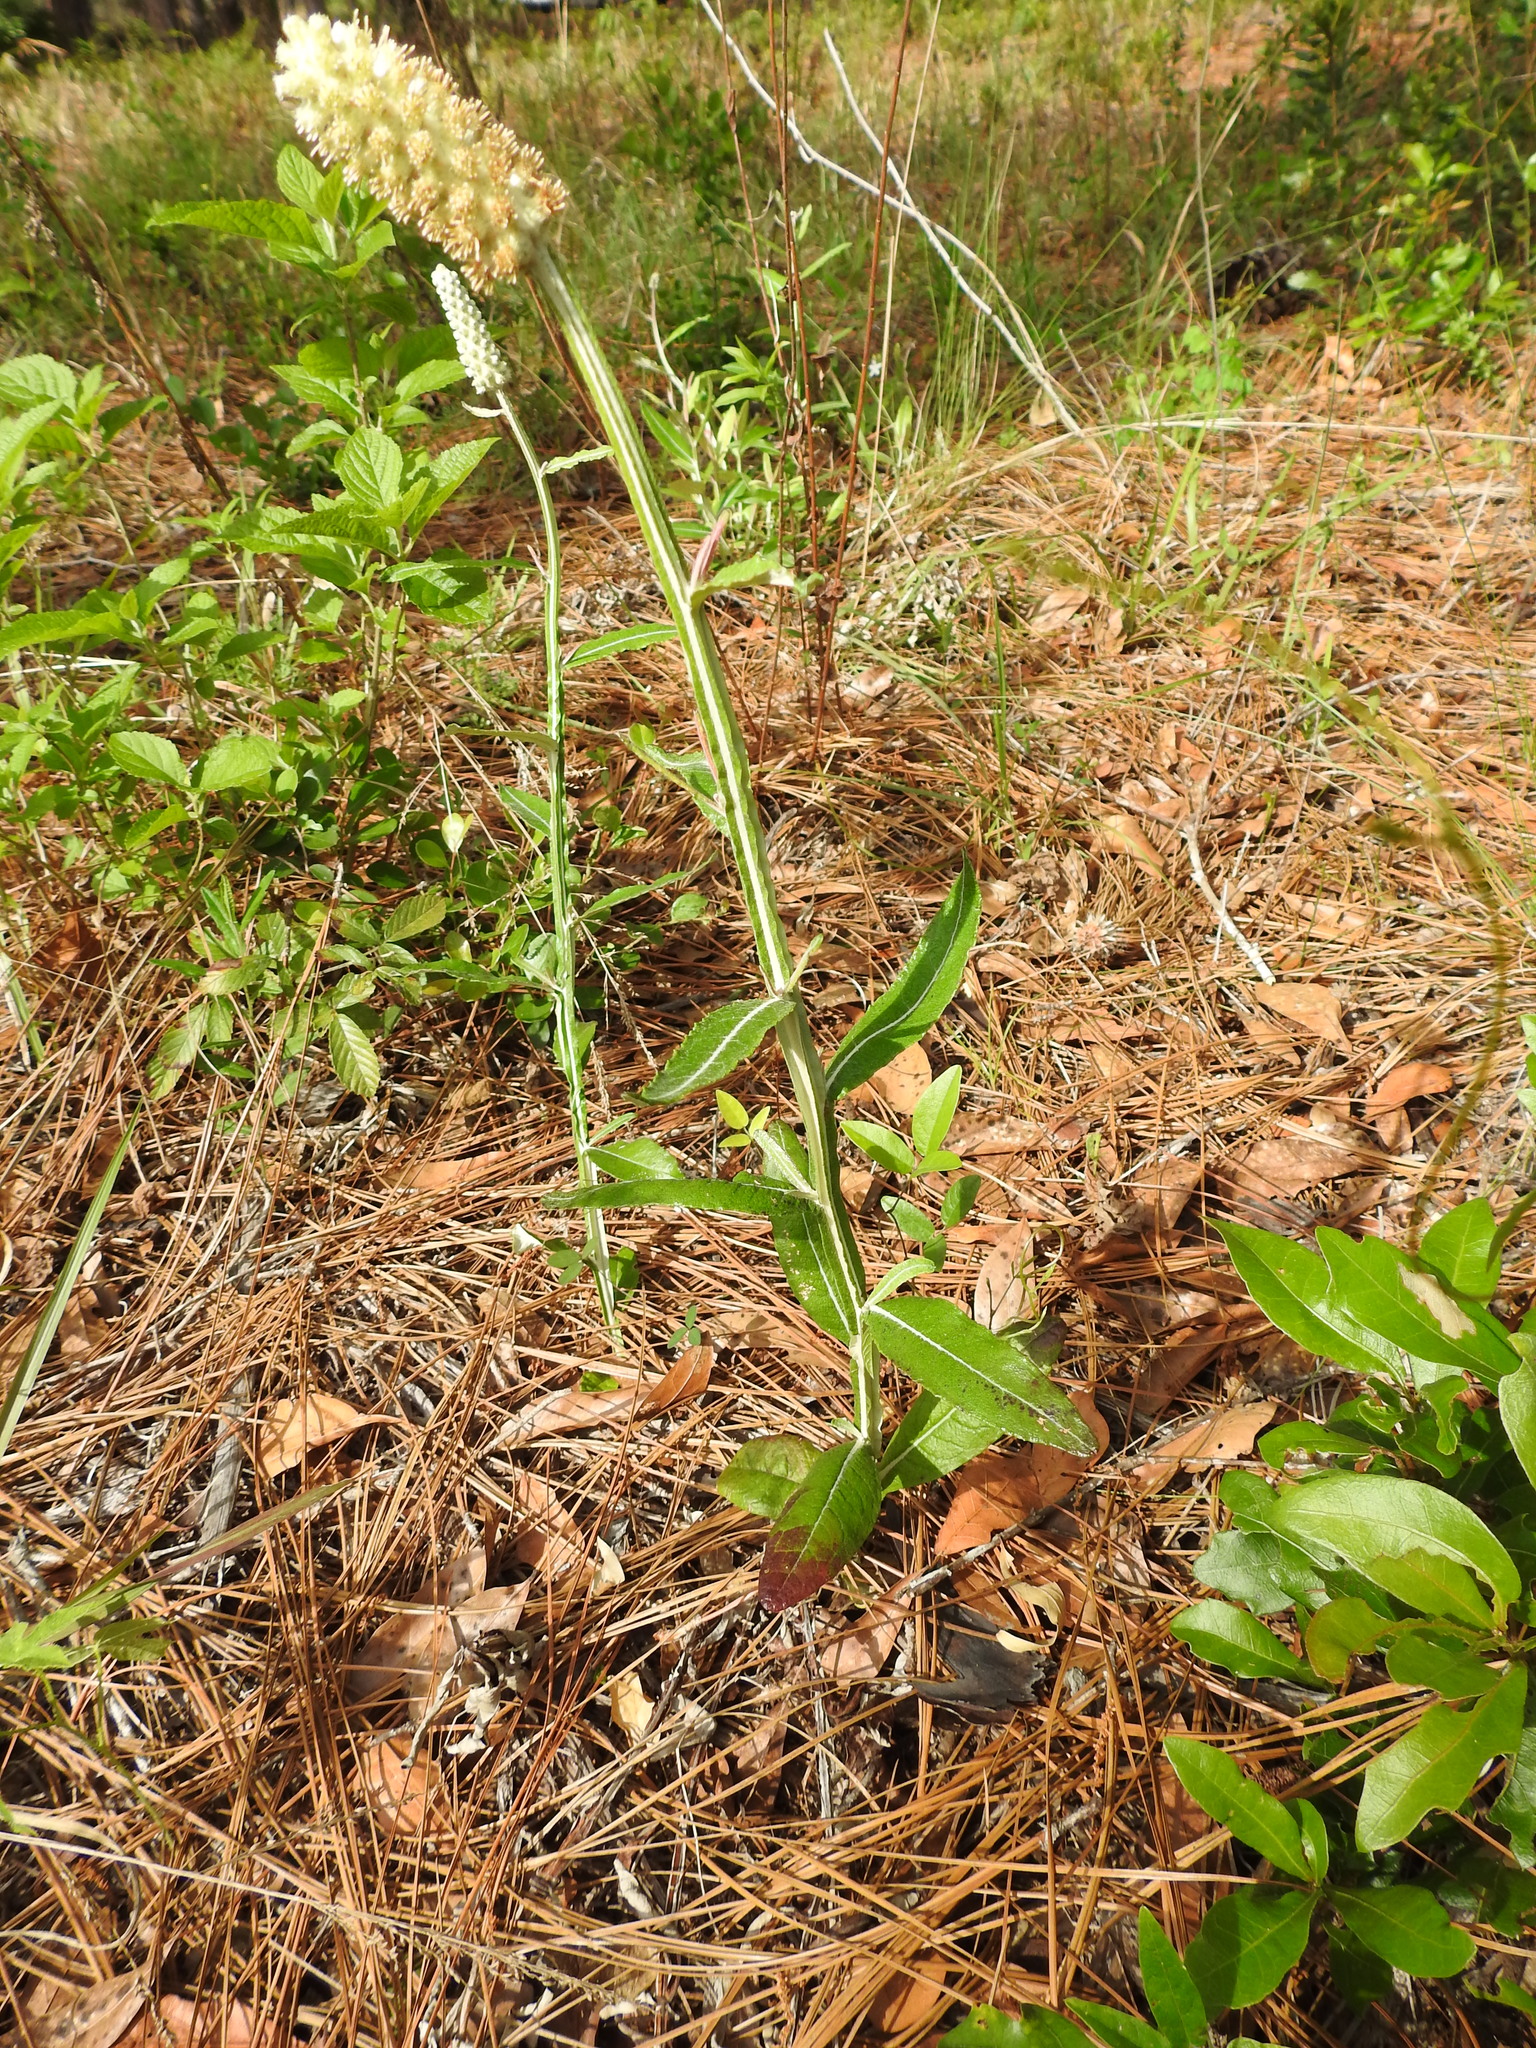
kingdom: Plantae
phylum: Tracheophyta
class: Magnoliopsida
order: Asterales
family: Asteraceae
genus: Pterocaulon
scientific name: Pterocaulon pycnostachyum
